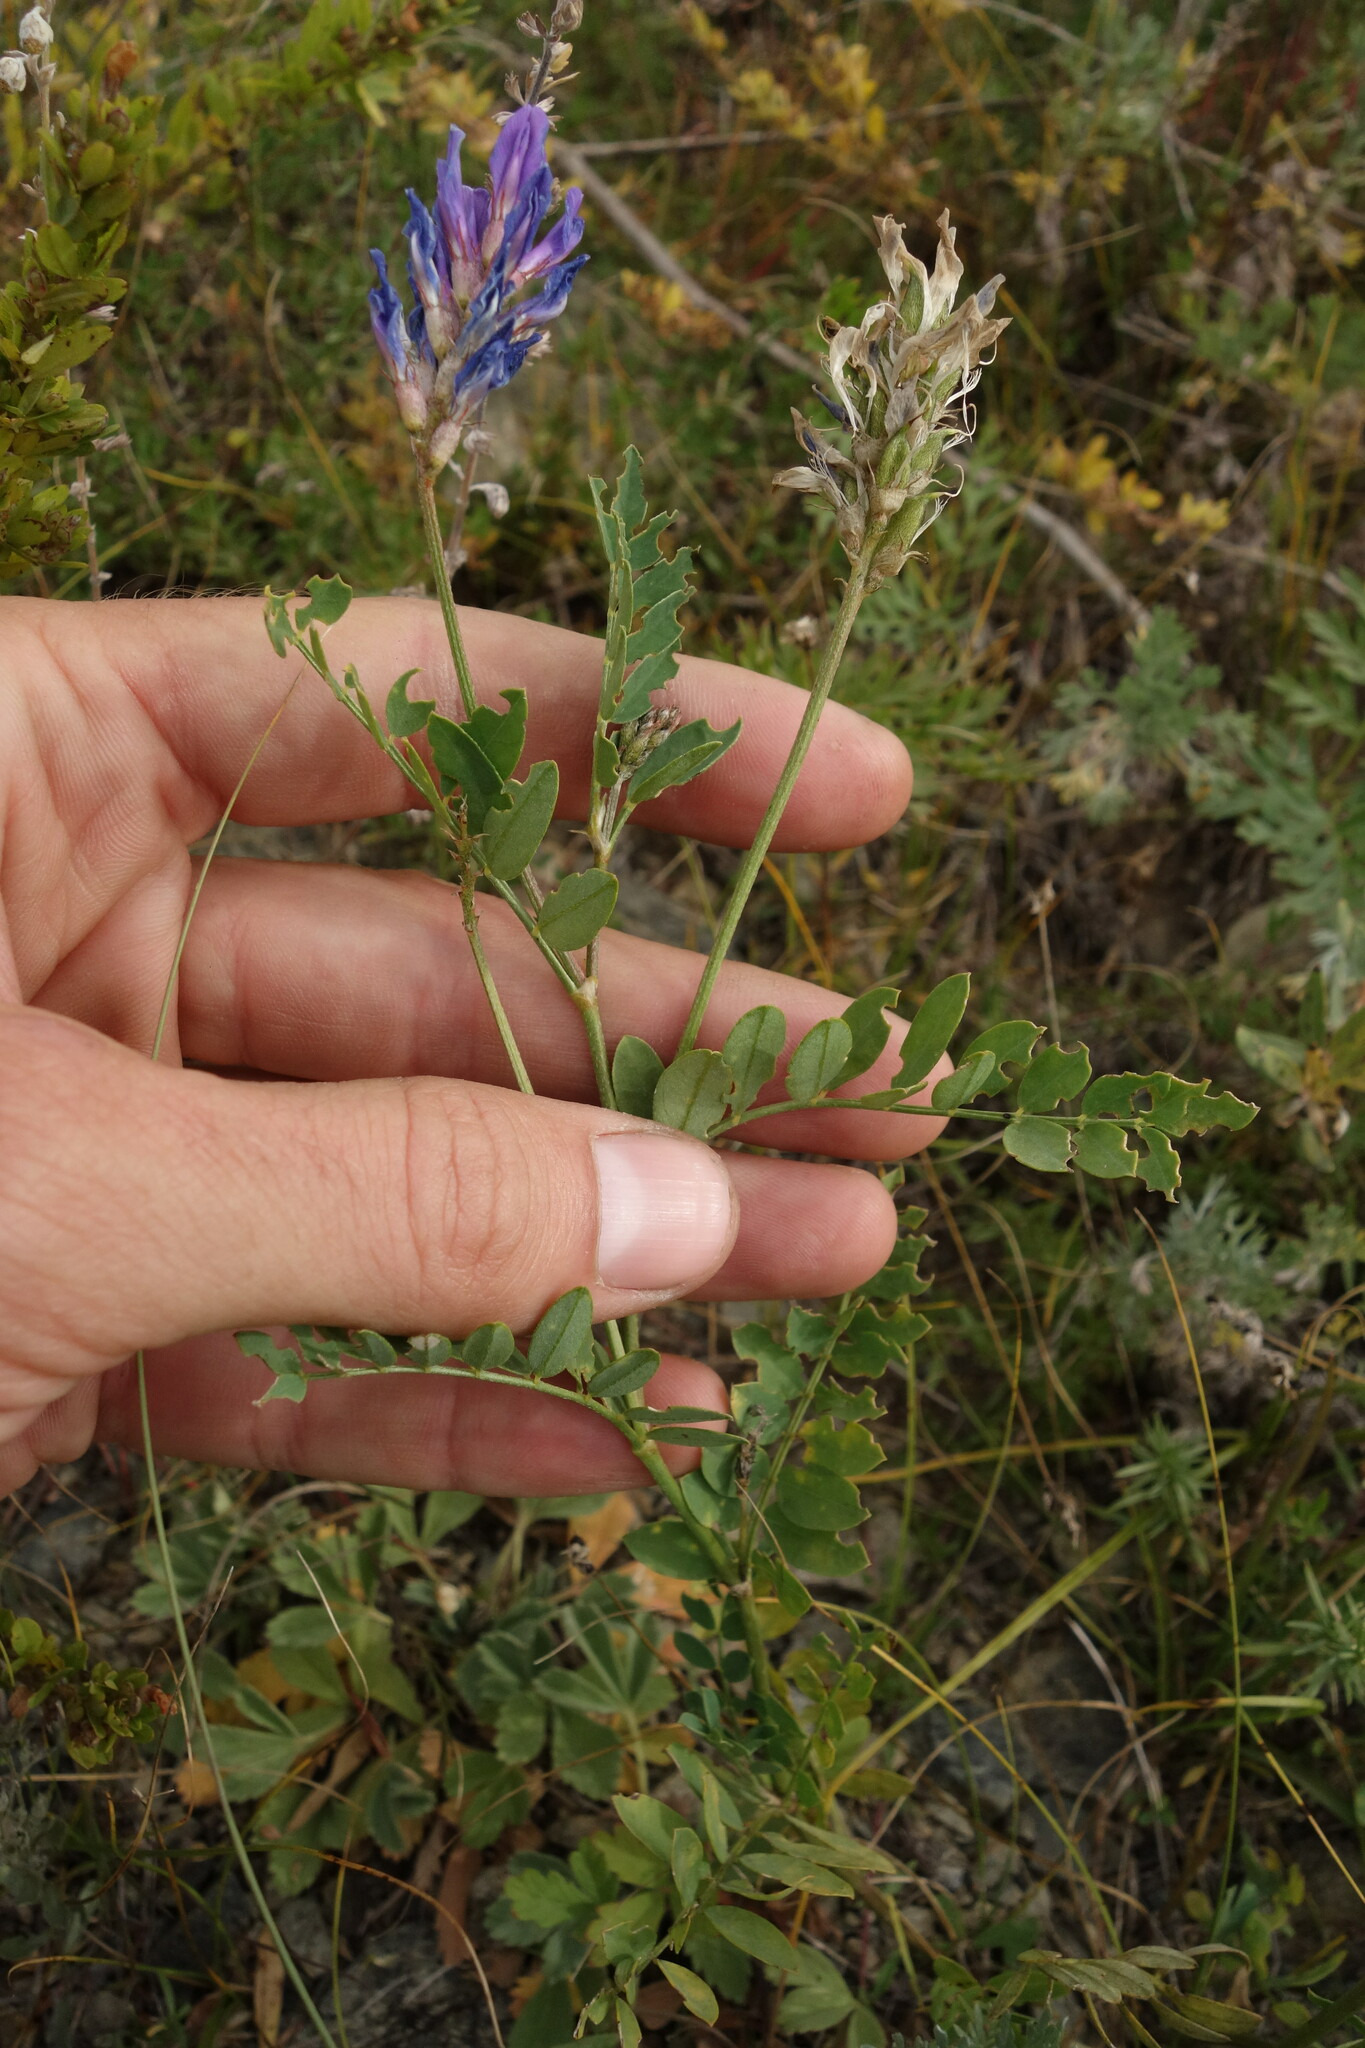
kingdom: Plantae
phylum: Tracheophyta
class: Magnoliopsida
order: Fabales
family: Fabaceae
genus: Astragalus
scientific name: Astragalus laxmannii
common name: Laxmann's milk-vetch
